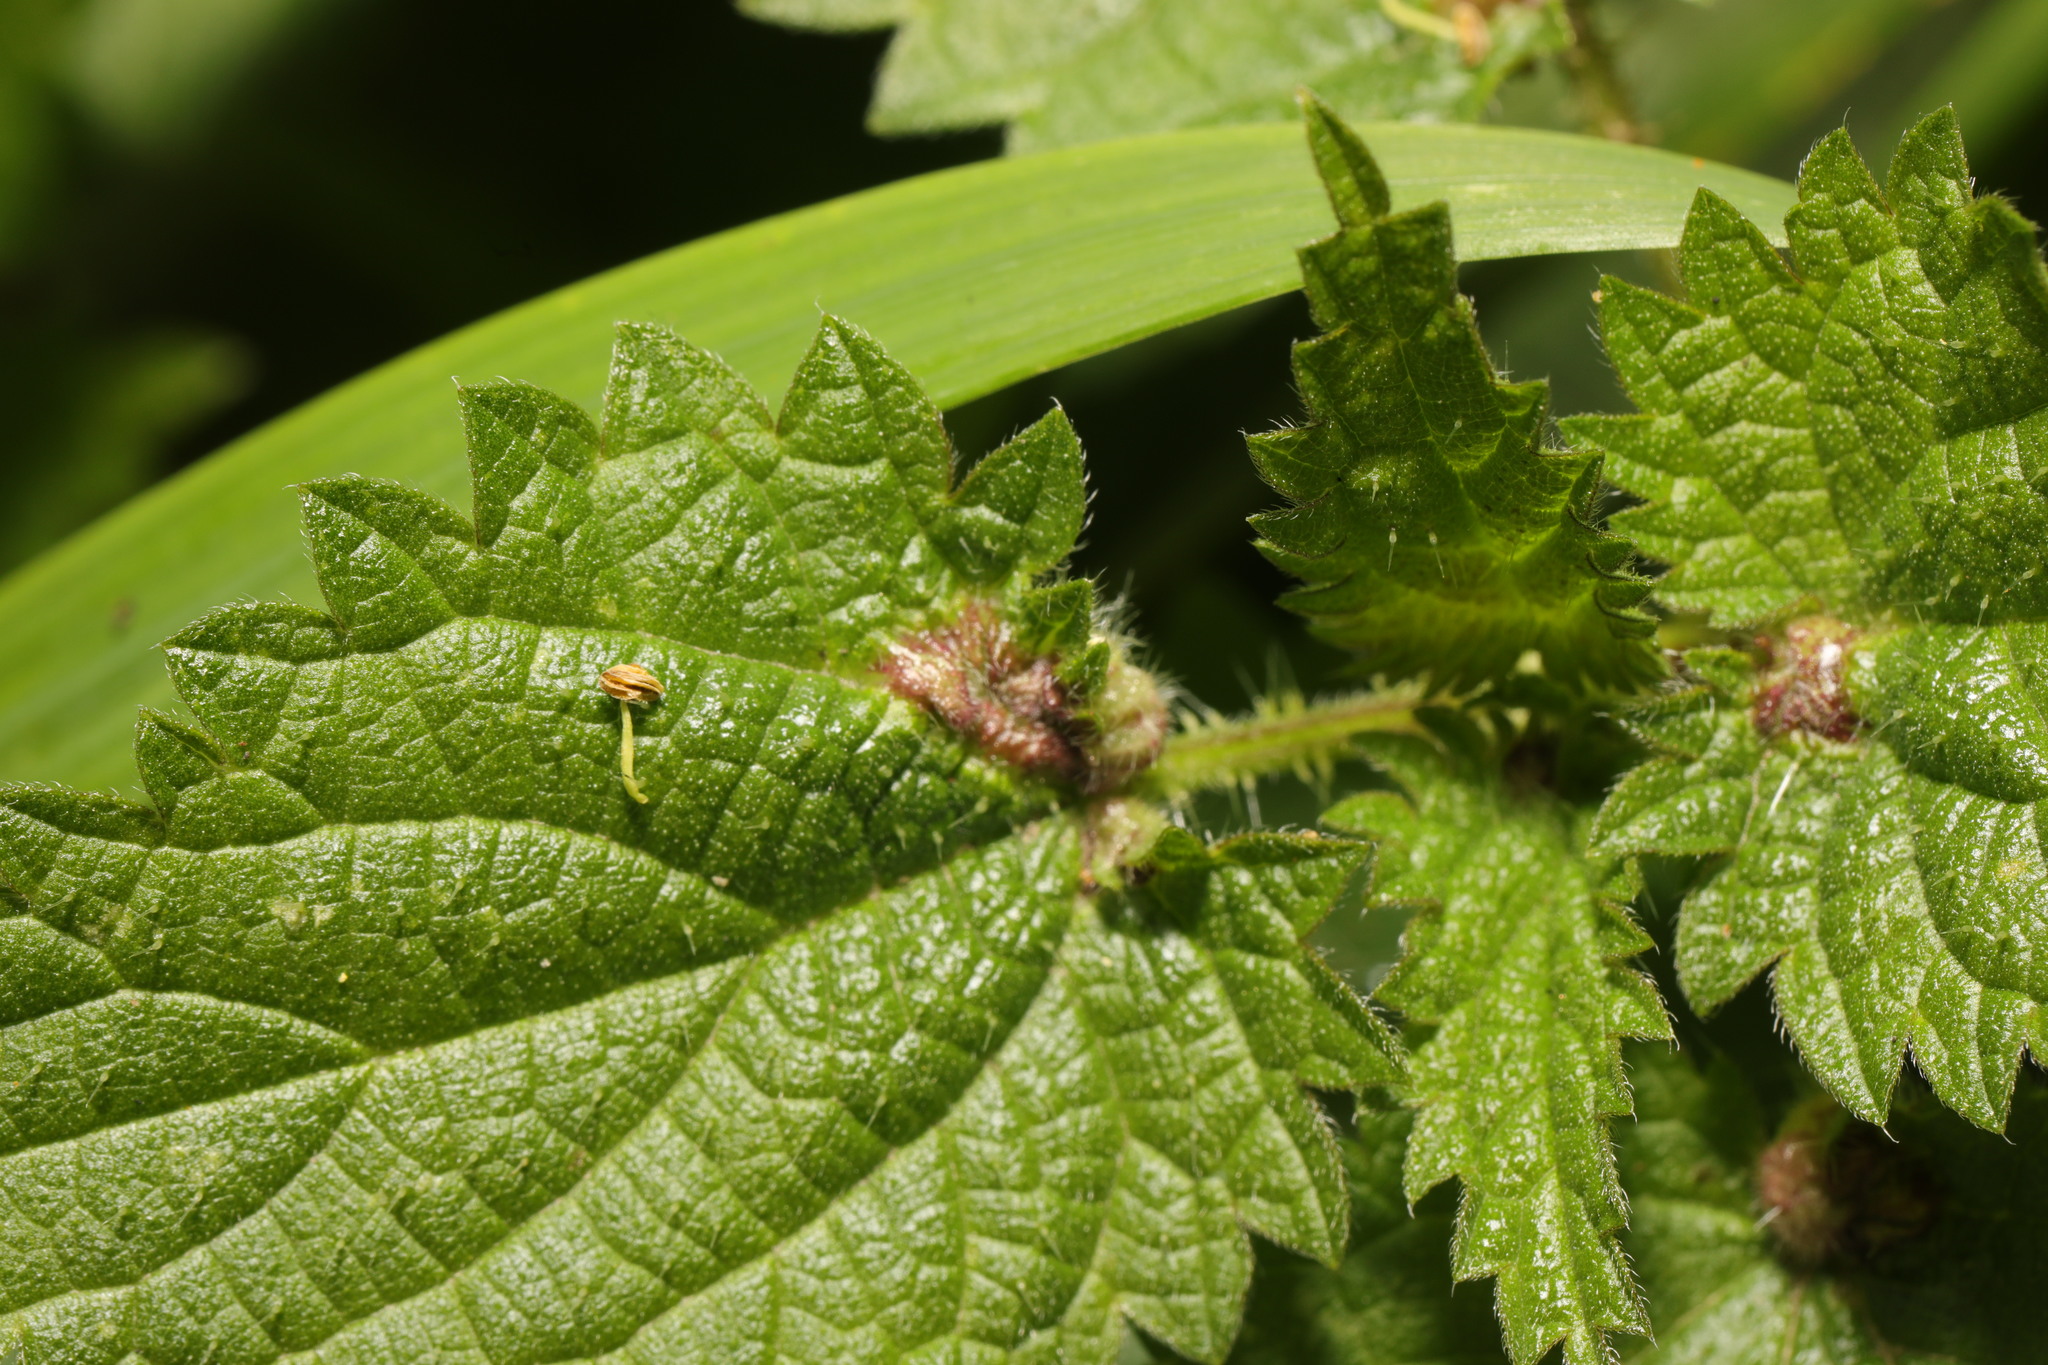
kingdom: Animalia
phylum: Arthropoda
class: Insecta
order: Diptera
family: Cecidomyiidae
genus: Dasineura
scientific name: Dasineura urticae
